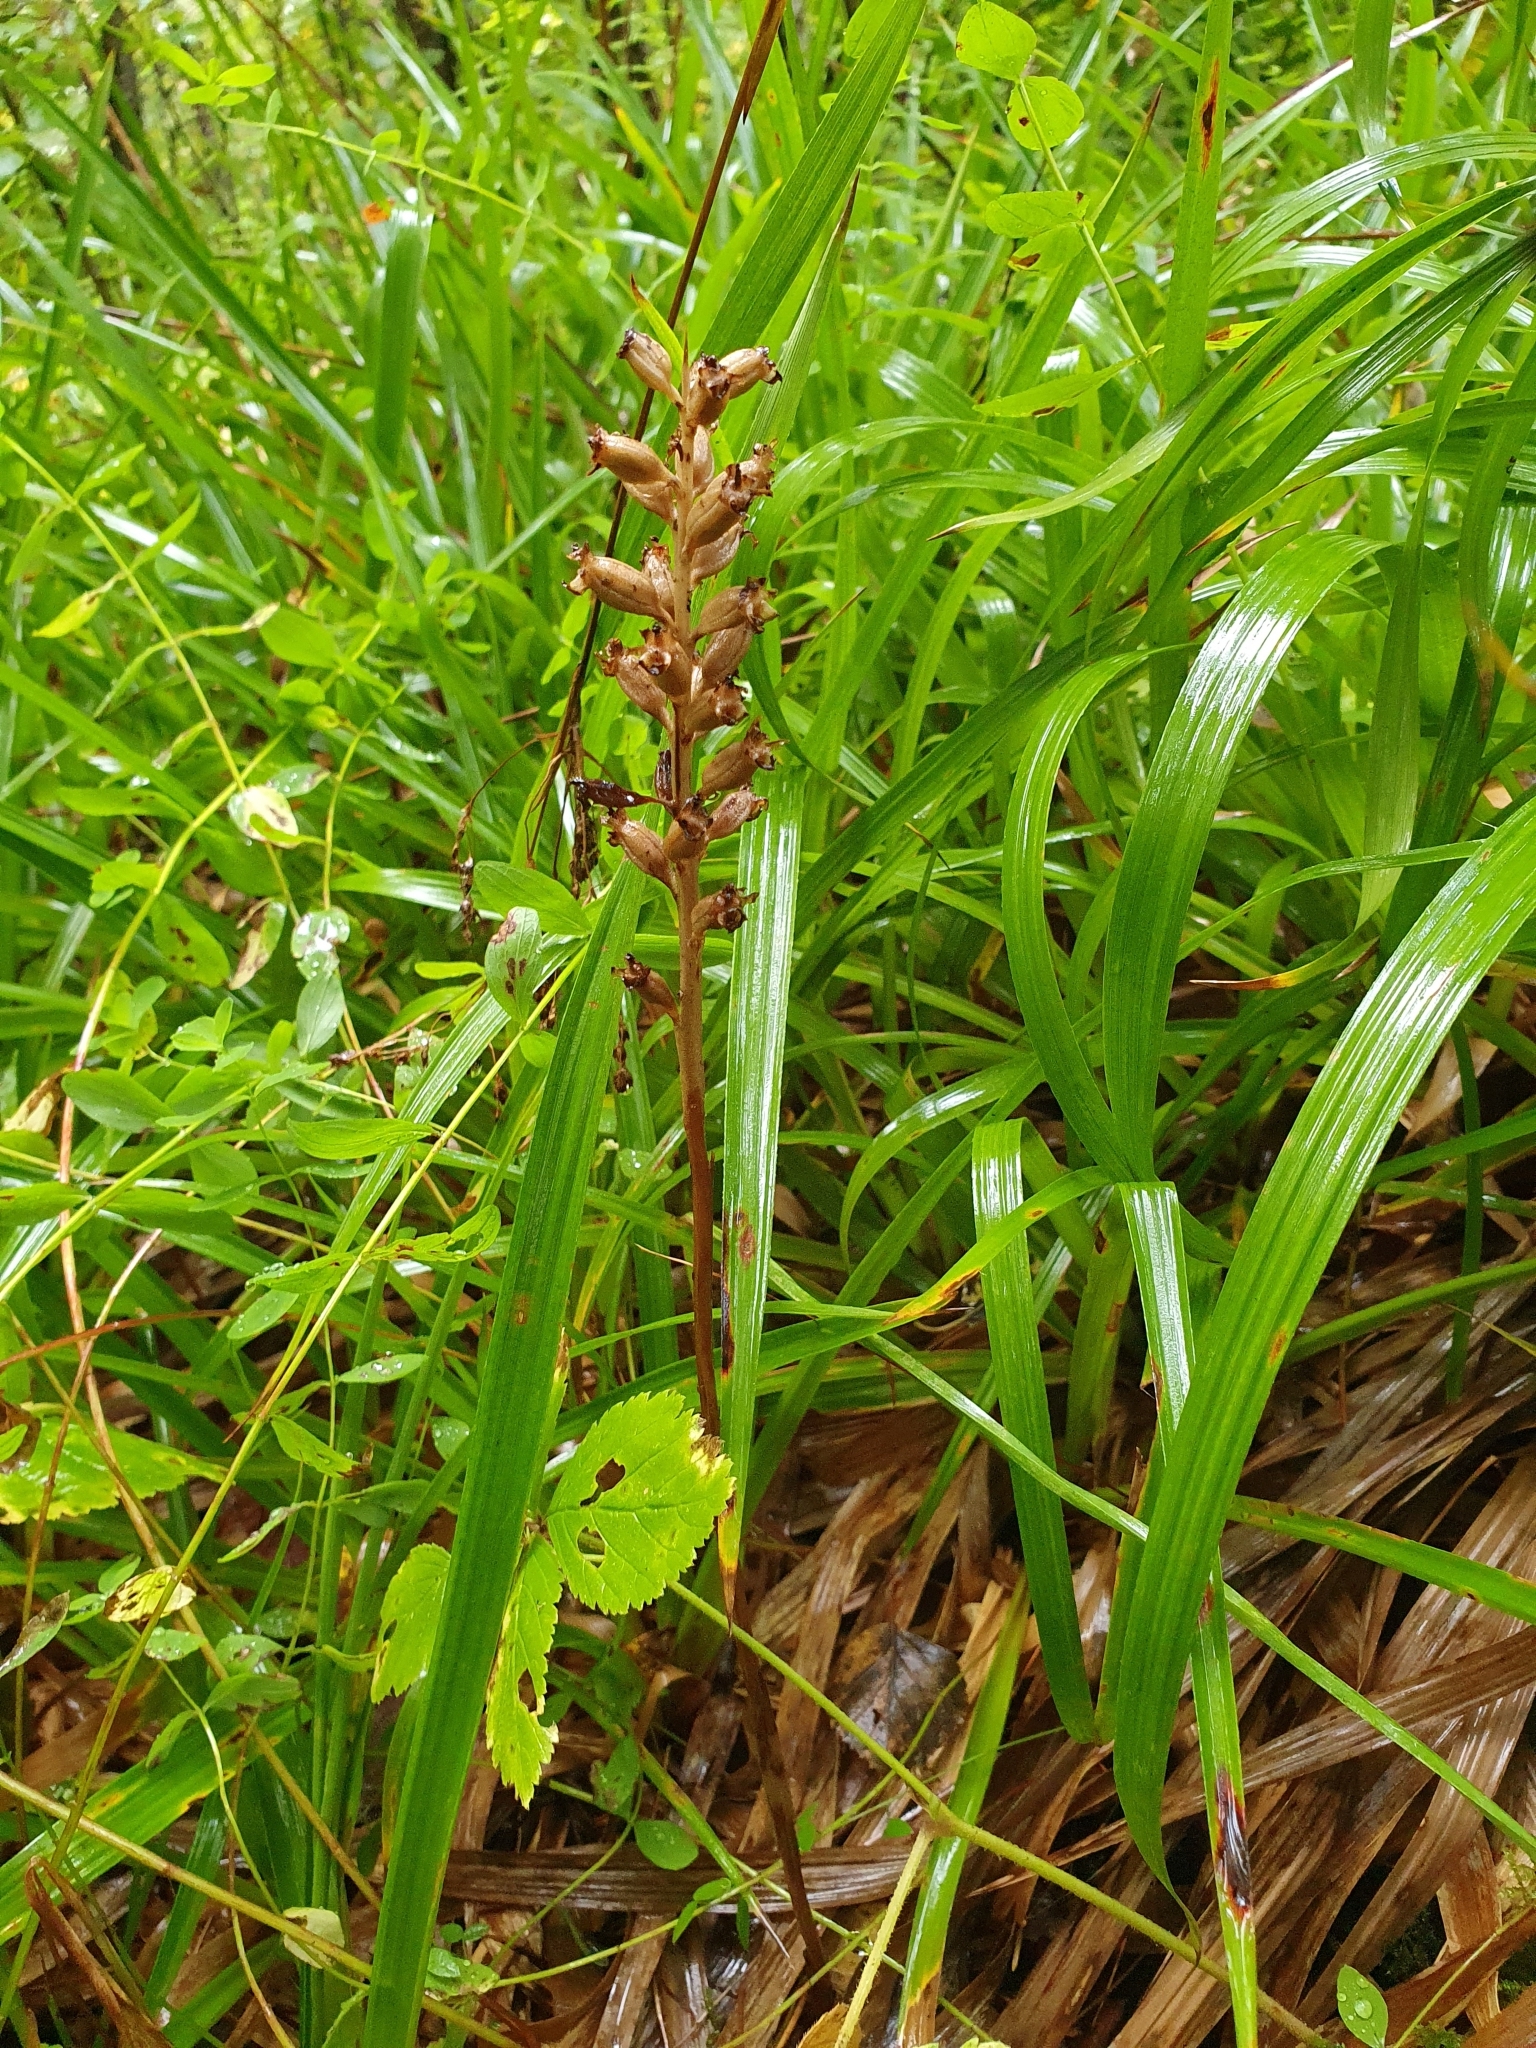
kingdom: Plantae
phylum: Tracheophyta
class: Liliopsida
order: Asparagales
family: Orchidaceae
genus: Neottia
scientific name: Neottia nidus-avis
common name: Bird's-nest orchid
